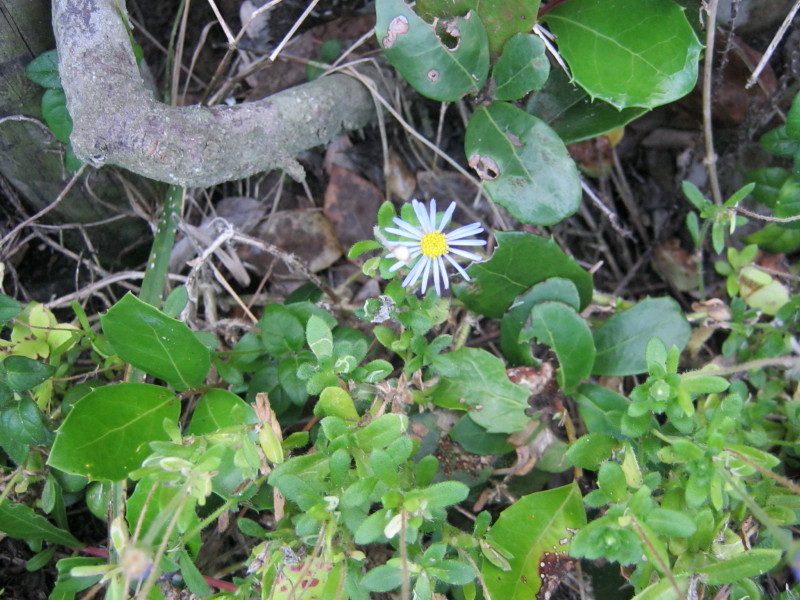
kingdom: Plantae
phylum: Tracheophyta
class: Magnoliopsida
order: Asterales
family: Asteraceae
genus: Felicia
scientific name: Felicia amoena
